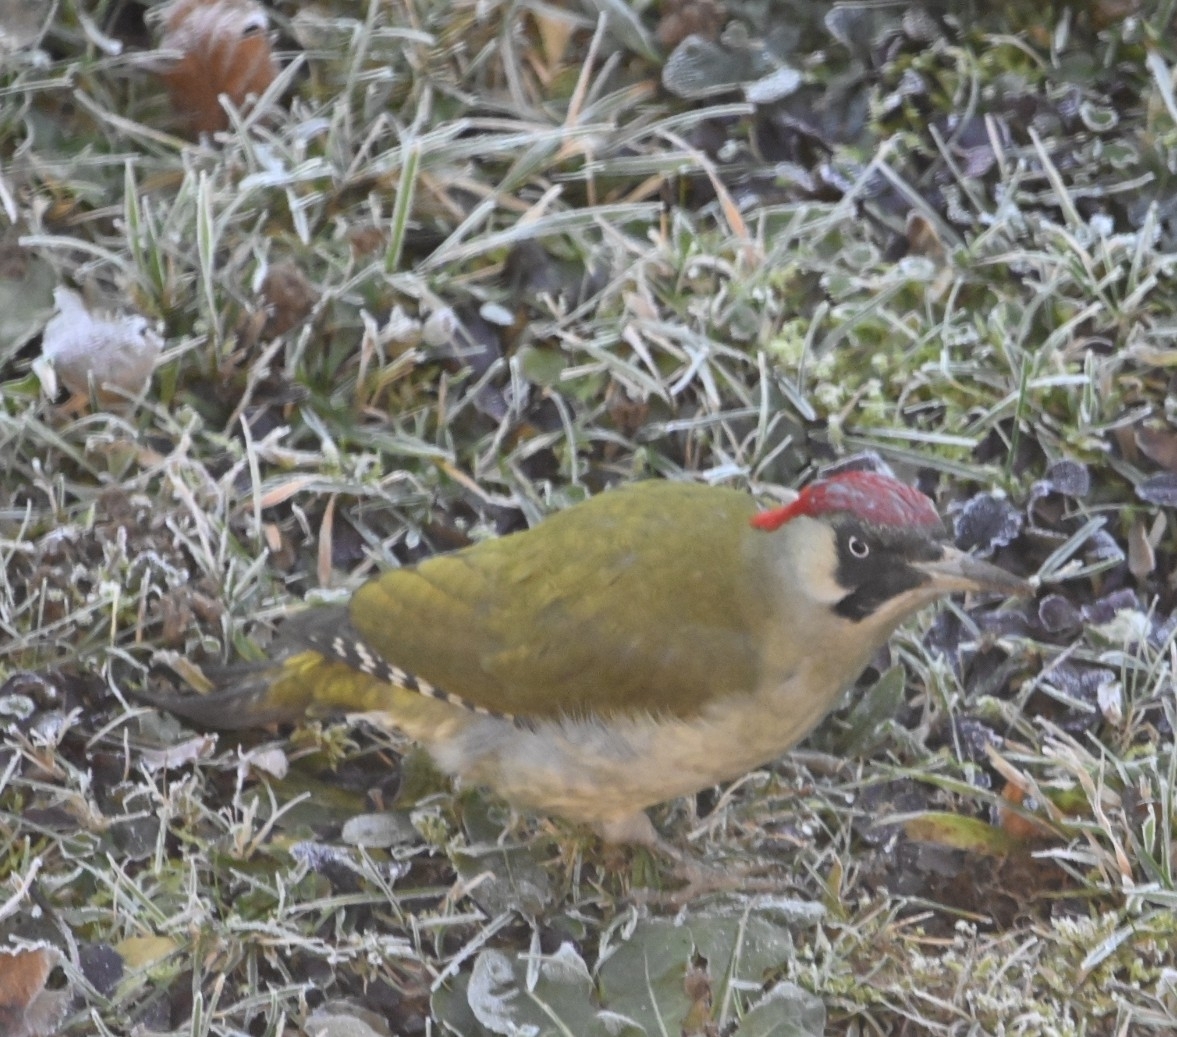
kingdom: Animalia
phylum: Chordata
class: Aves
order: Piciformes
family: Picidae
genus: Picus
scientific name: Picus viridis
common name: European green woodpecker
